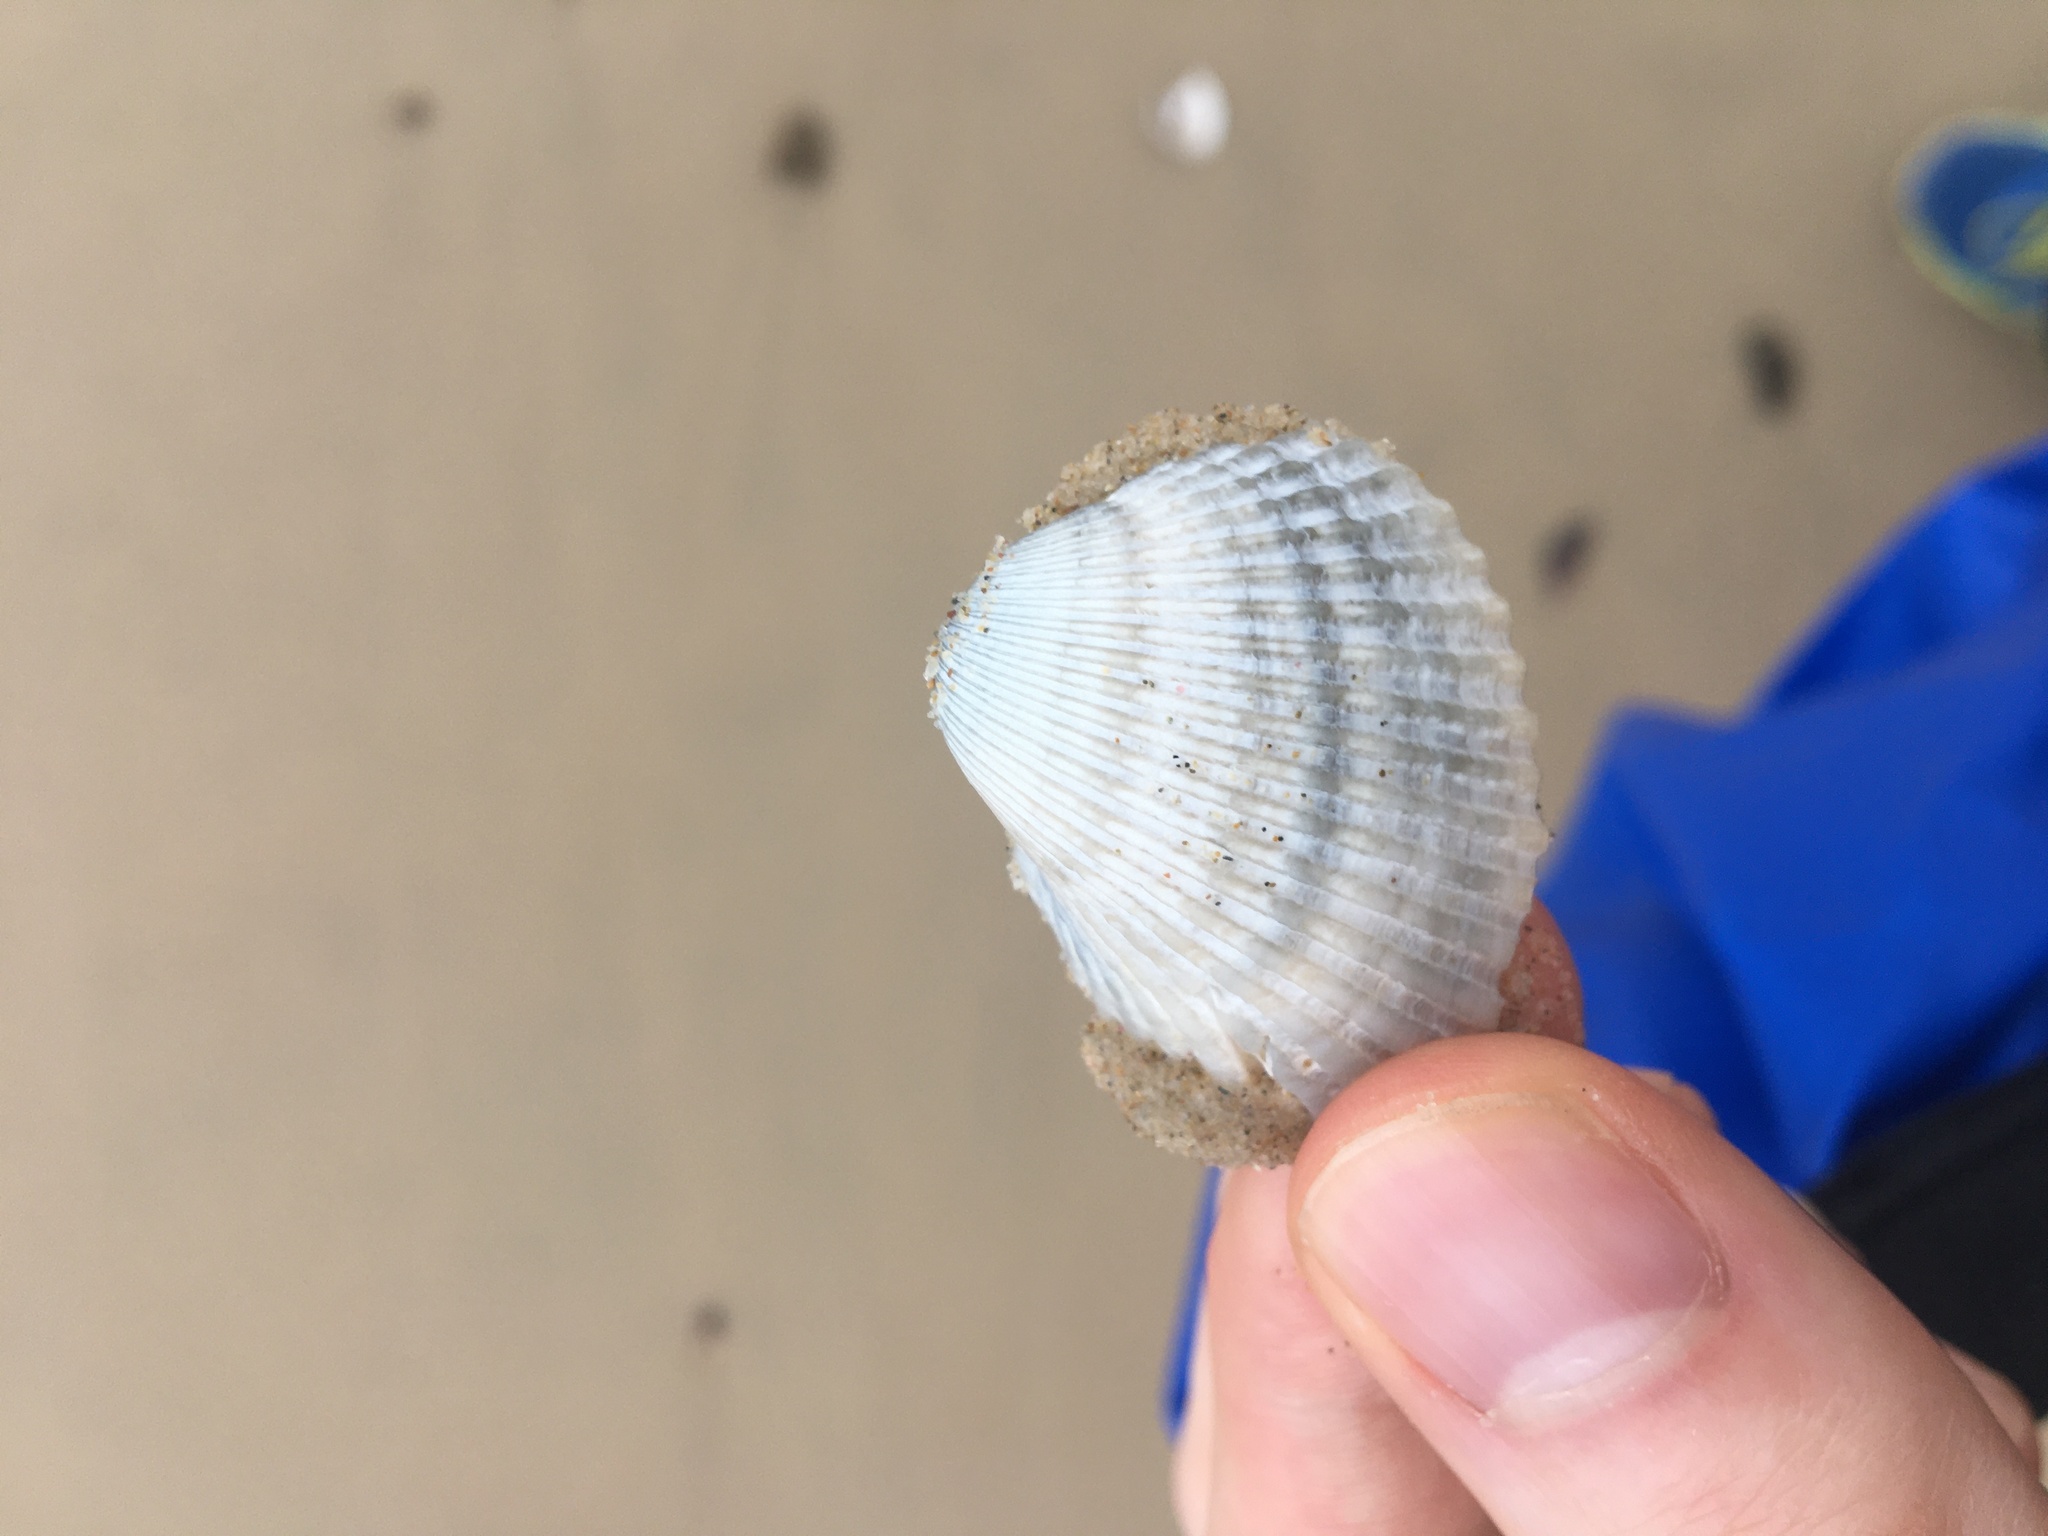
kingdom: Animalia
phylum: Mollusca
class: Bivalvia
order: Arcida
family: Arcidae
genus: Anadara
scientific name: Anadara trapezia
